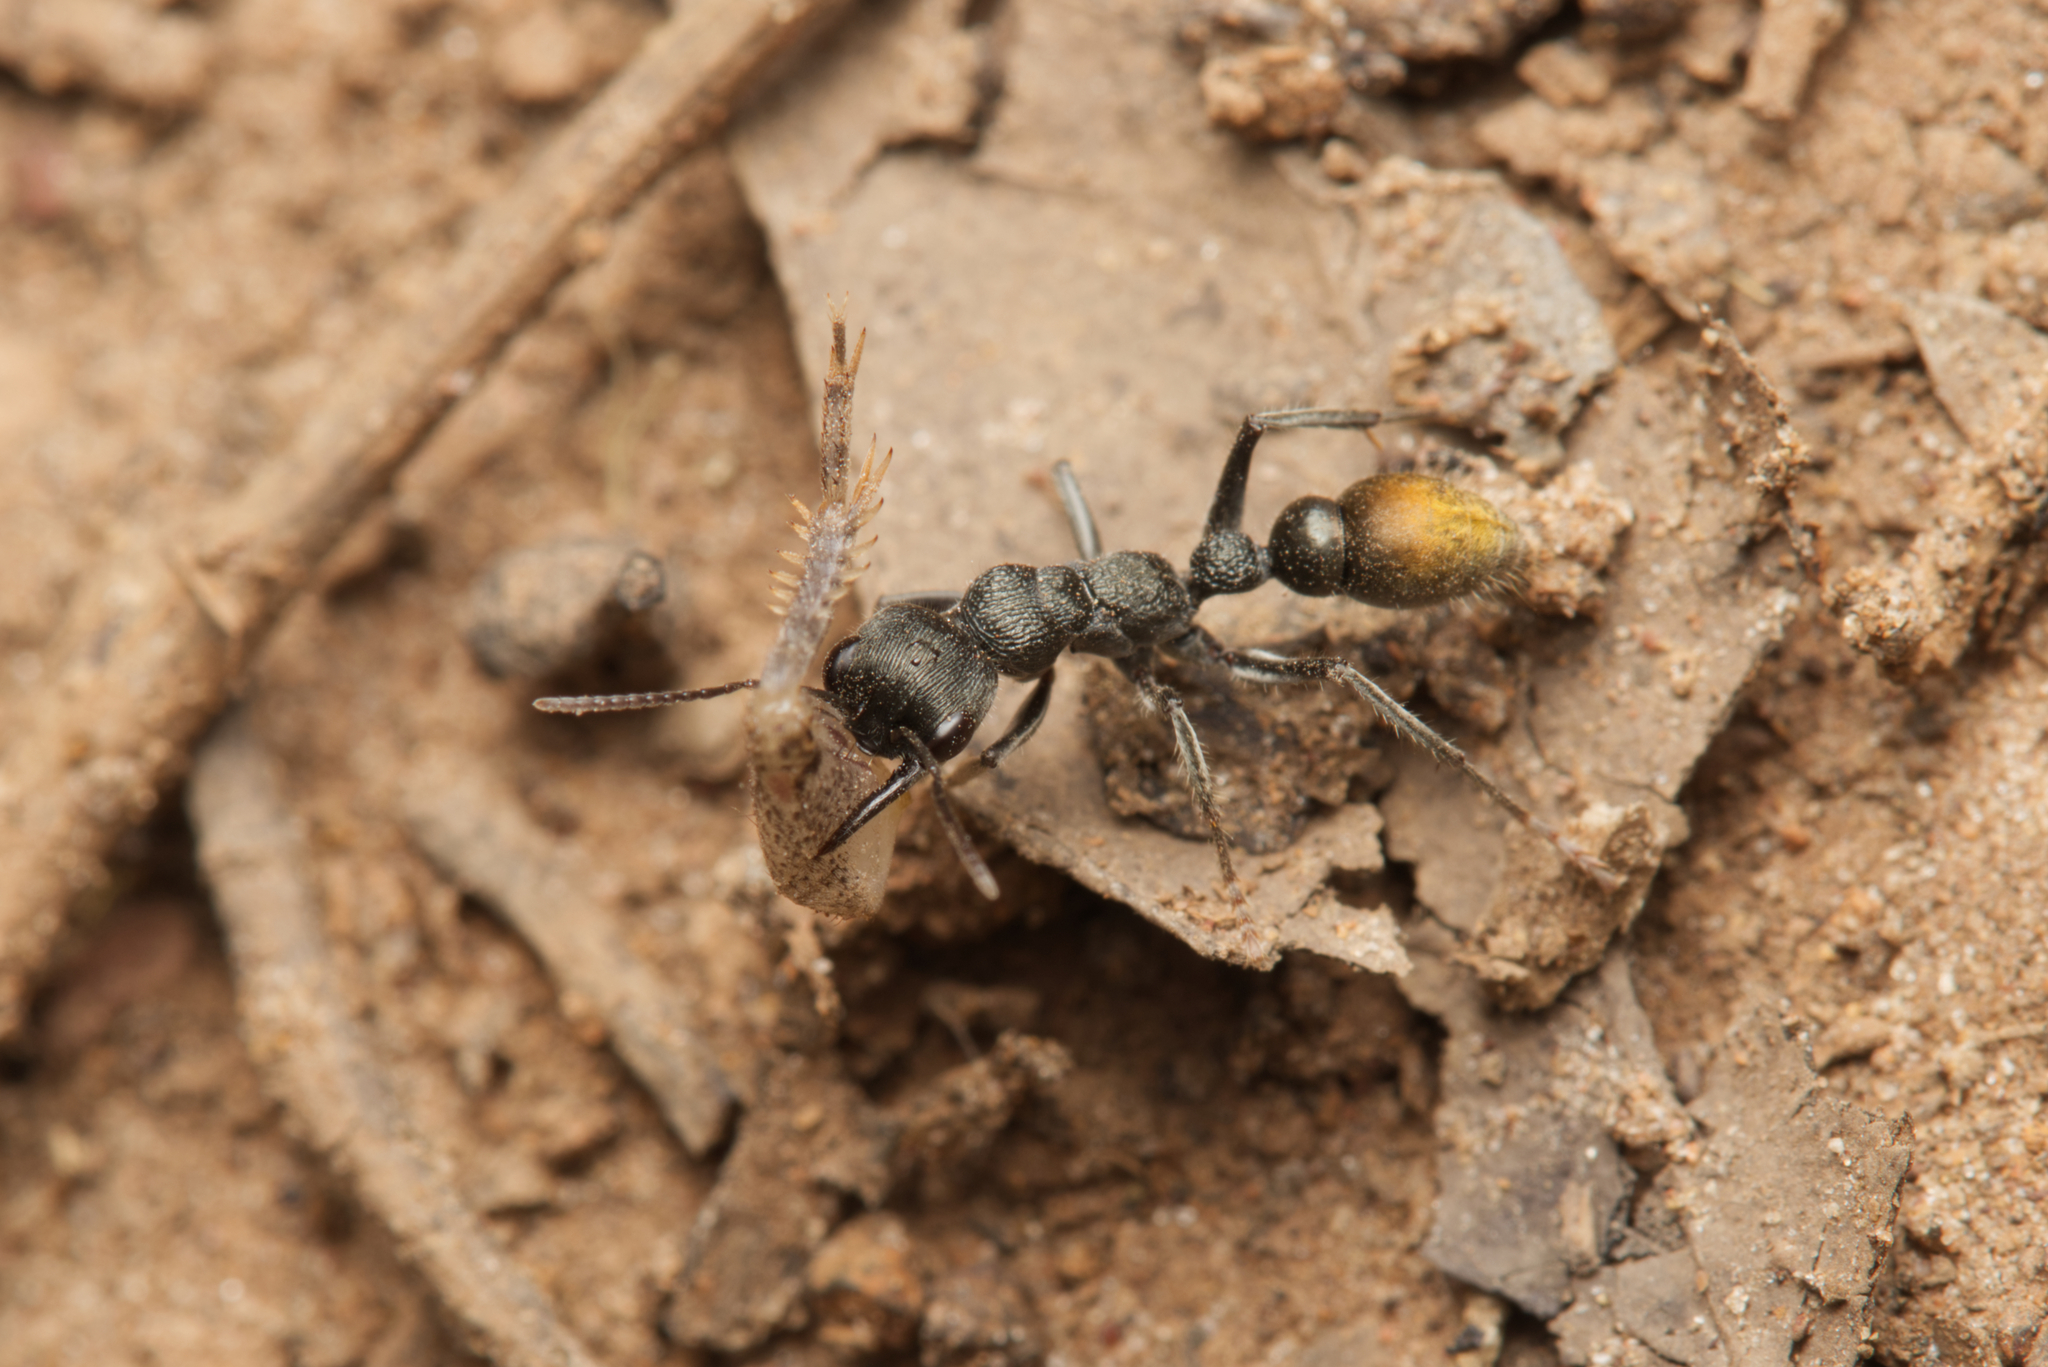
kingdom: Animalia
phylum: Arthropoda
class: Insecta
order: Hymenoptera
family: Formicidae
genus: Myrmecia
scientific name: Myrmecia gilberti
